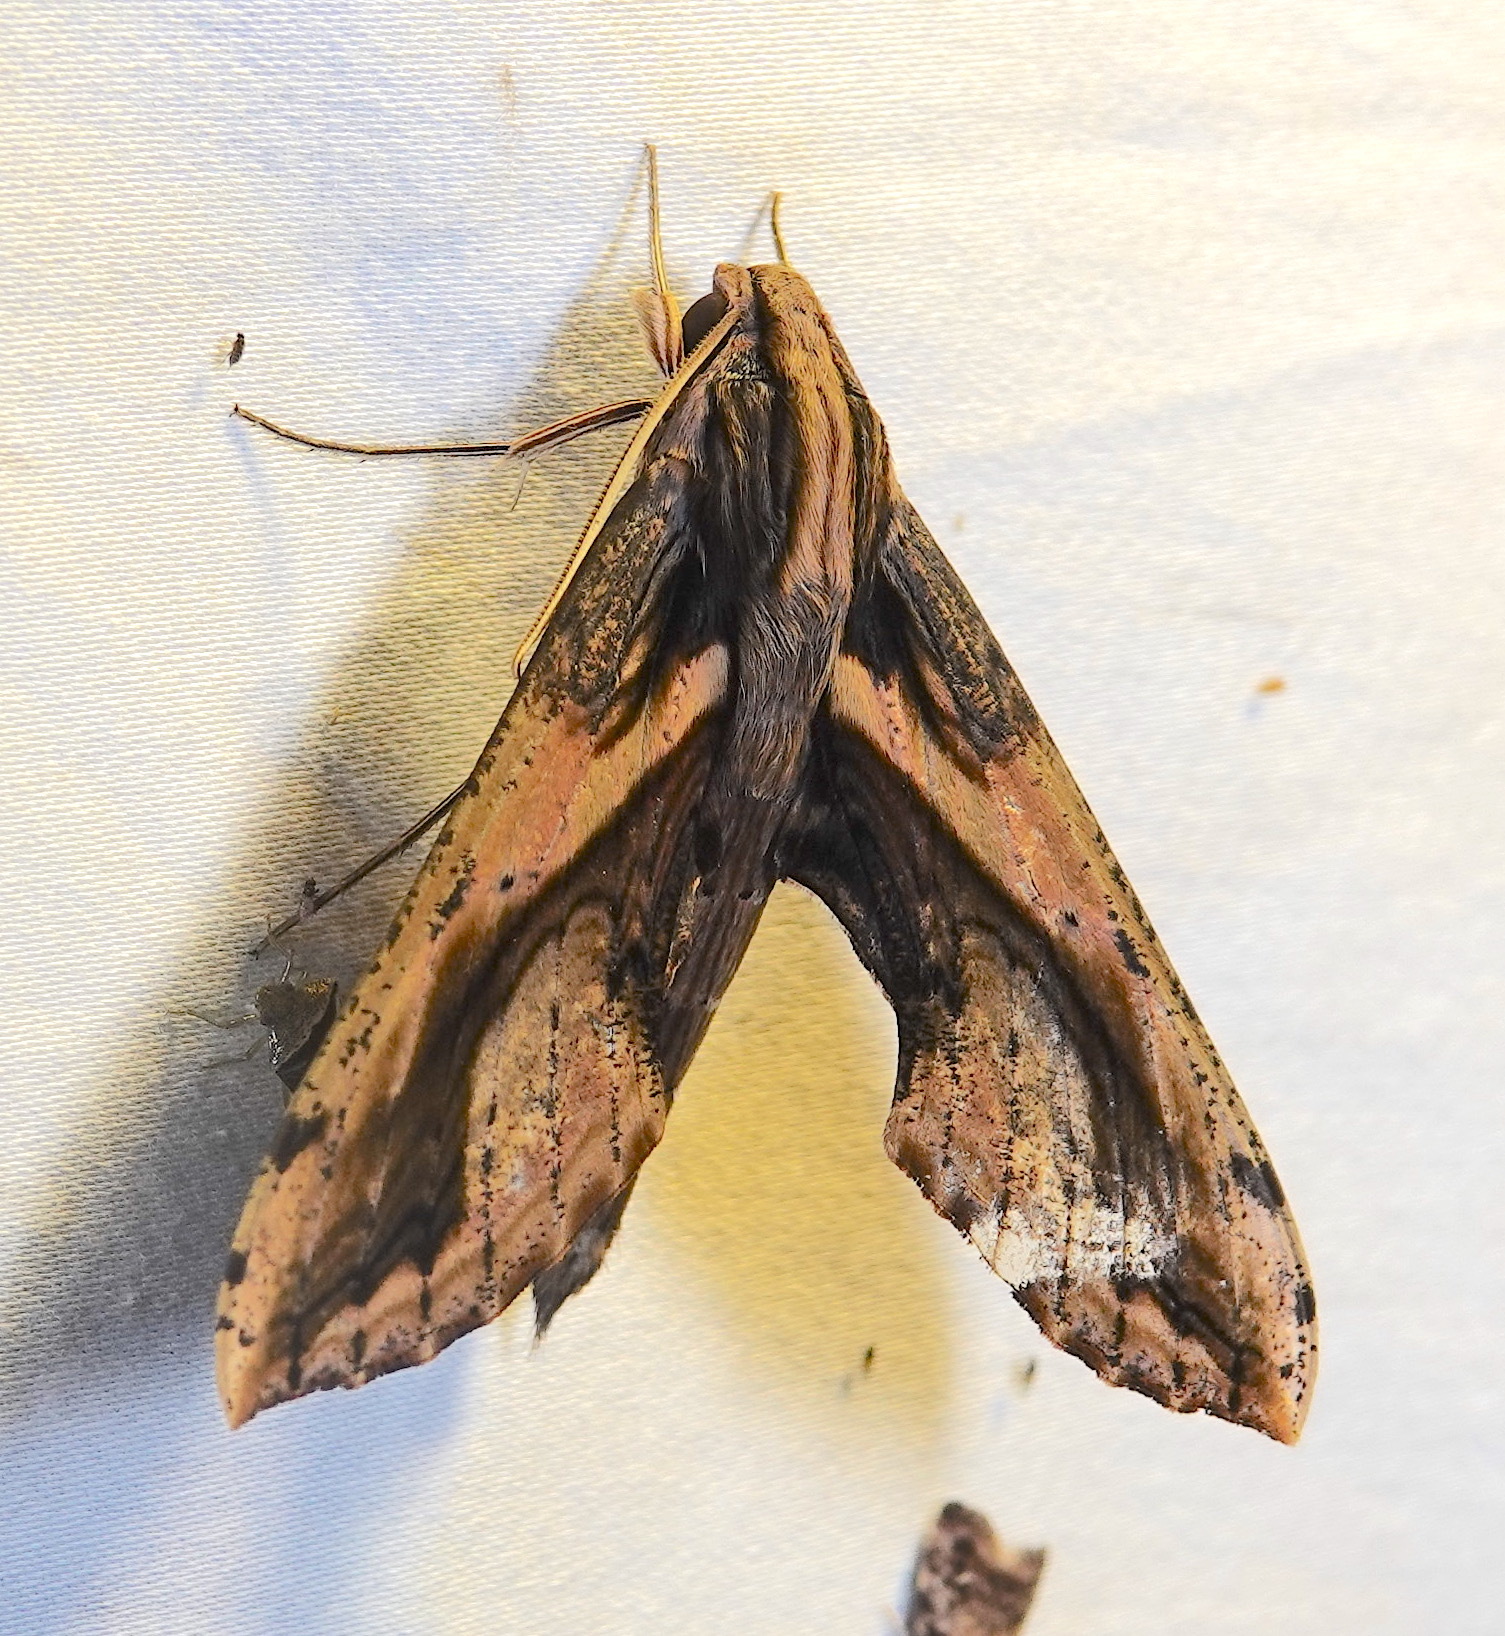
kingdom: Animalia
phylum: Arthropoda
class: Insecta
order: Lepidoptera
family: Sphingidae
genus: Xylophanes
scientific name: Xylophanes ceratomioides
